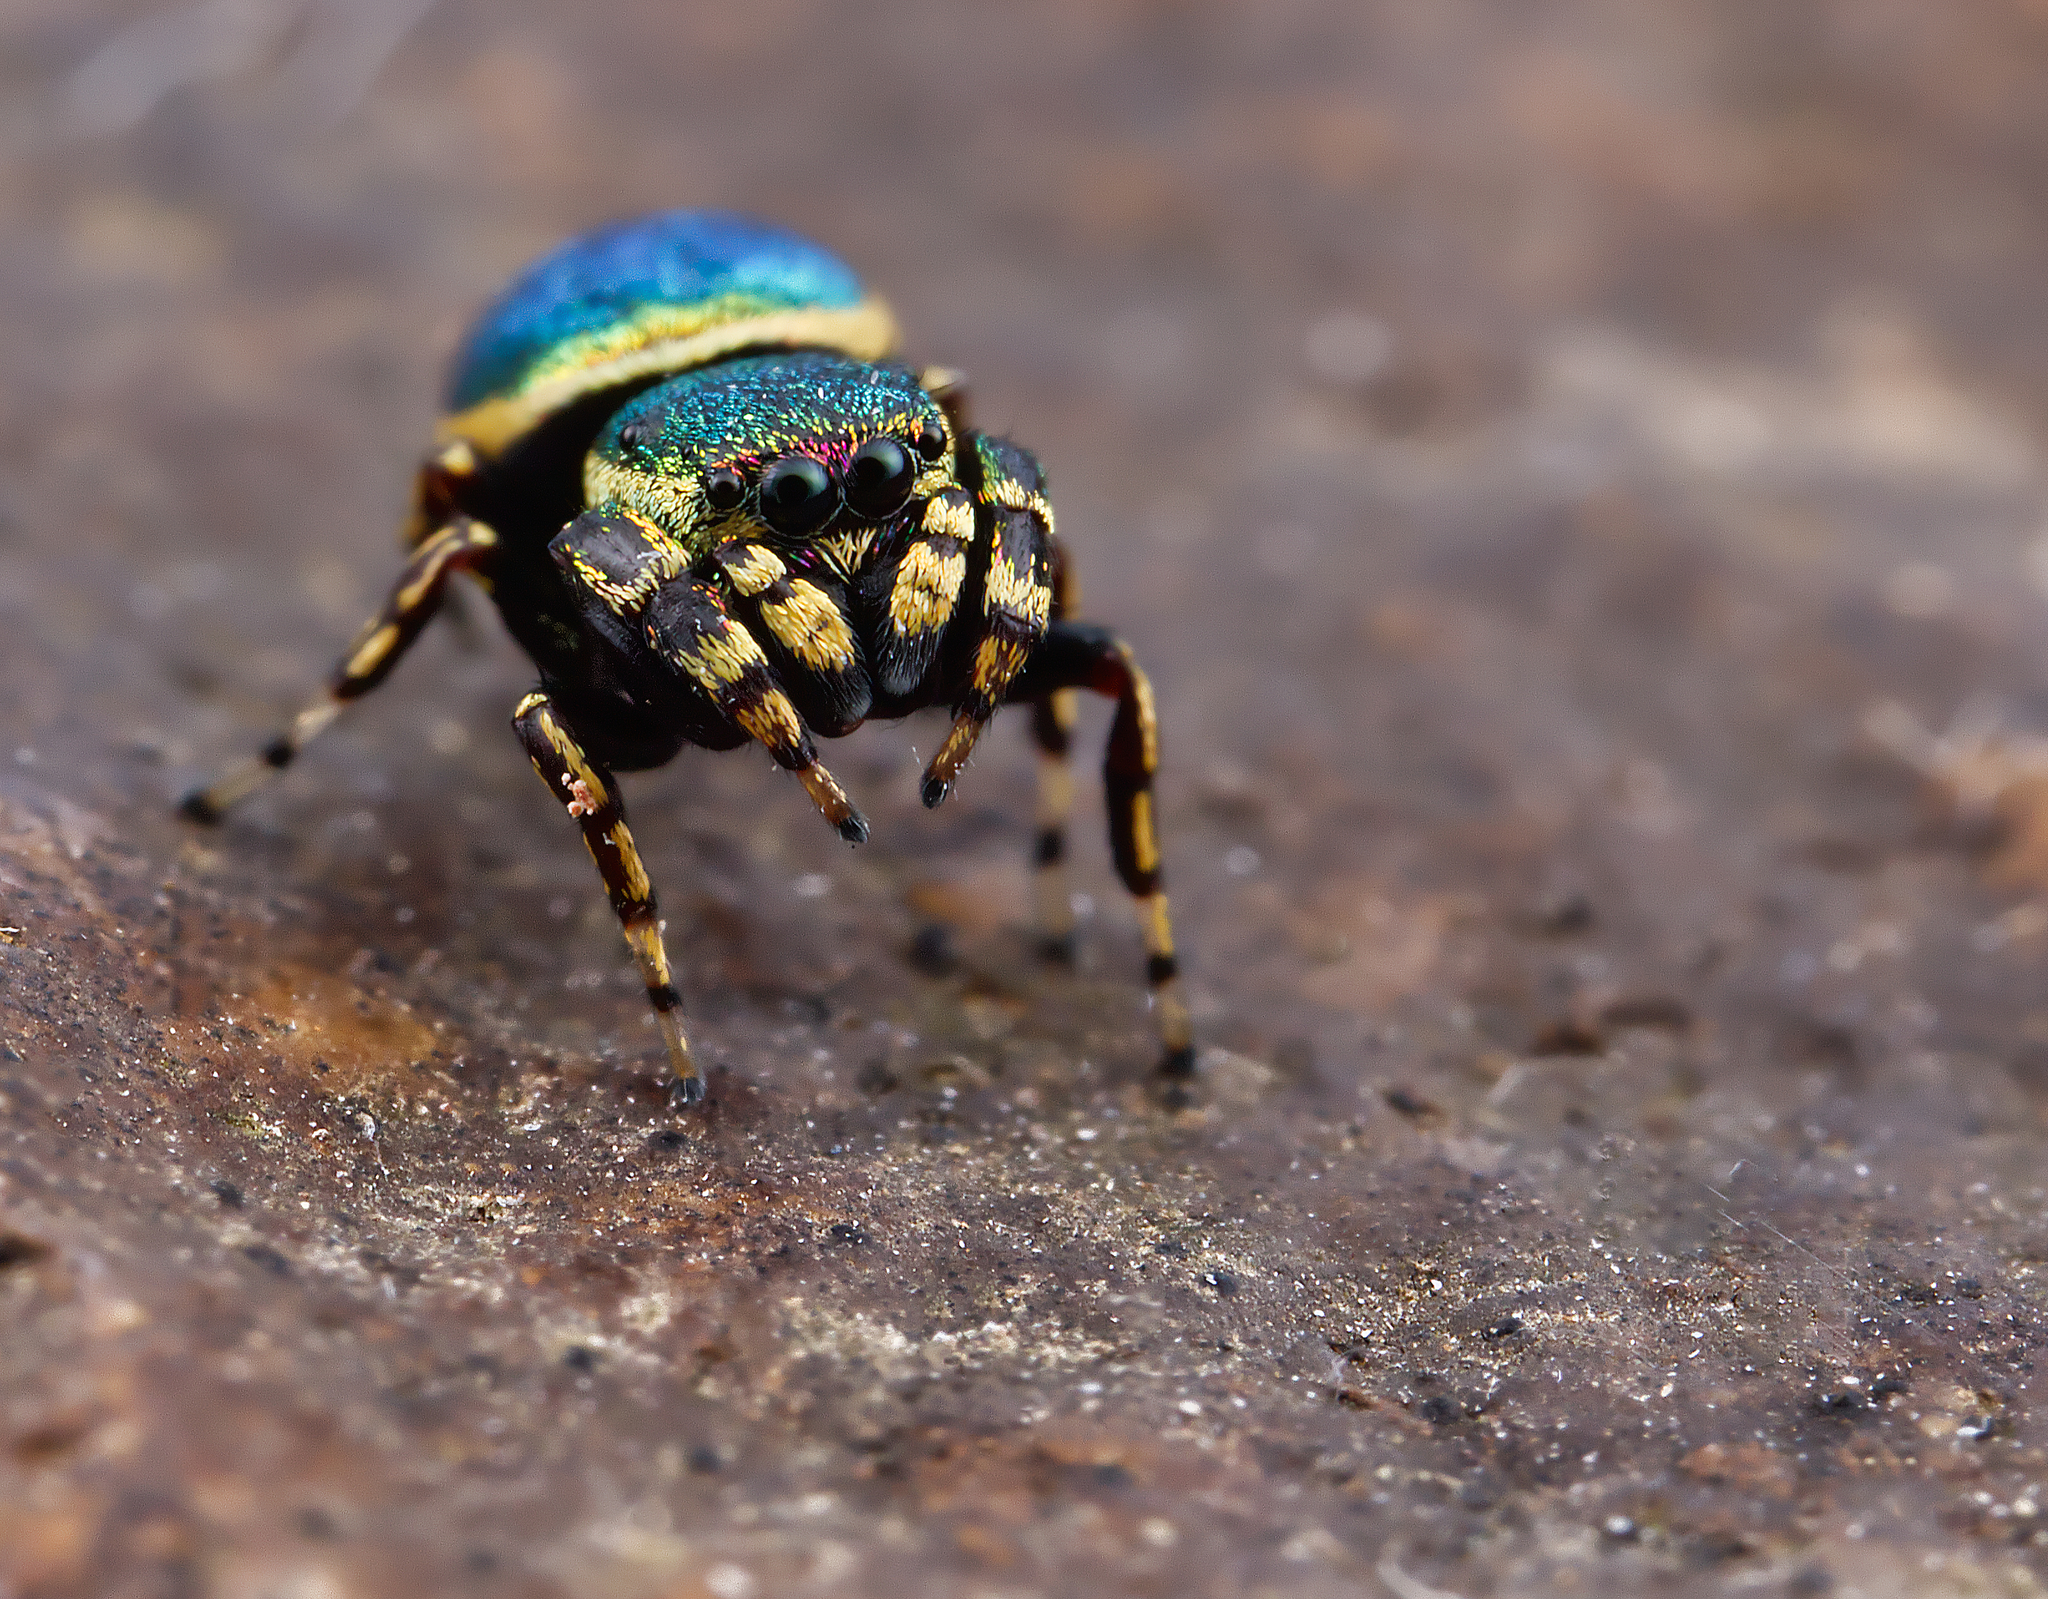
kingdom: Animalia
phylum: Arthropoda
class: Arachnida
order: Araneae
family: Salticidae
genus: Sassacus
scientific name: Sassacus papenhoei
